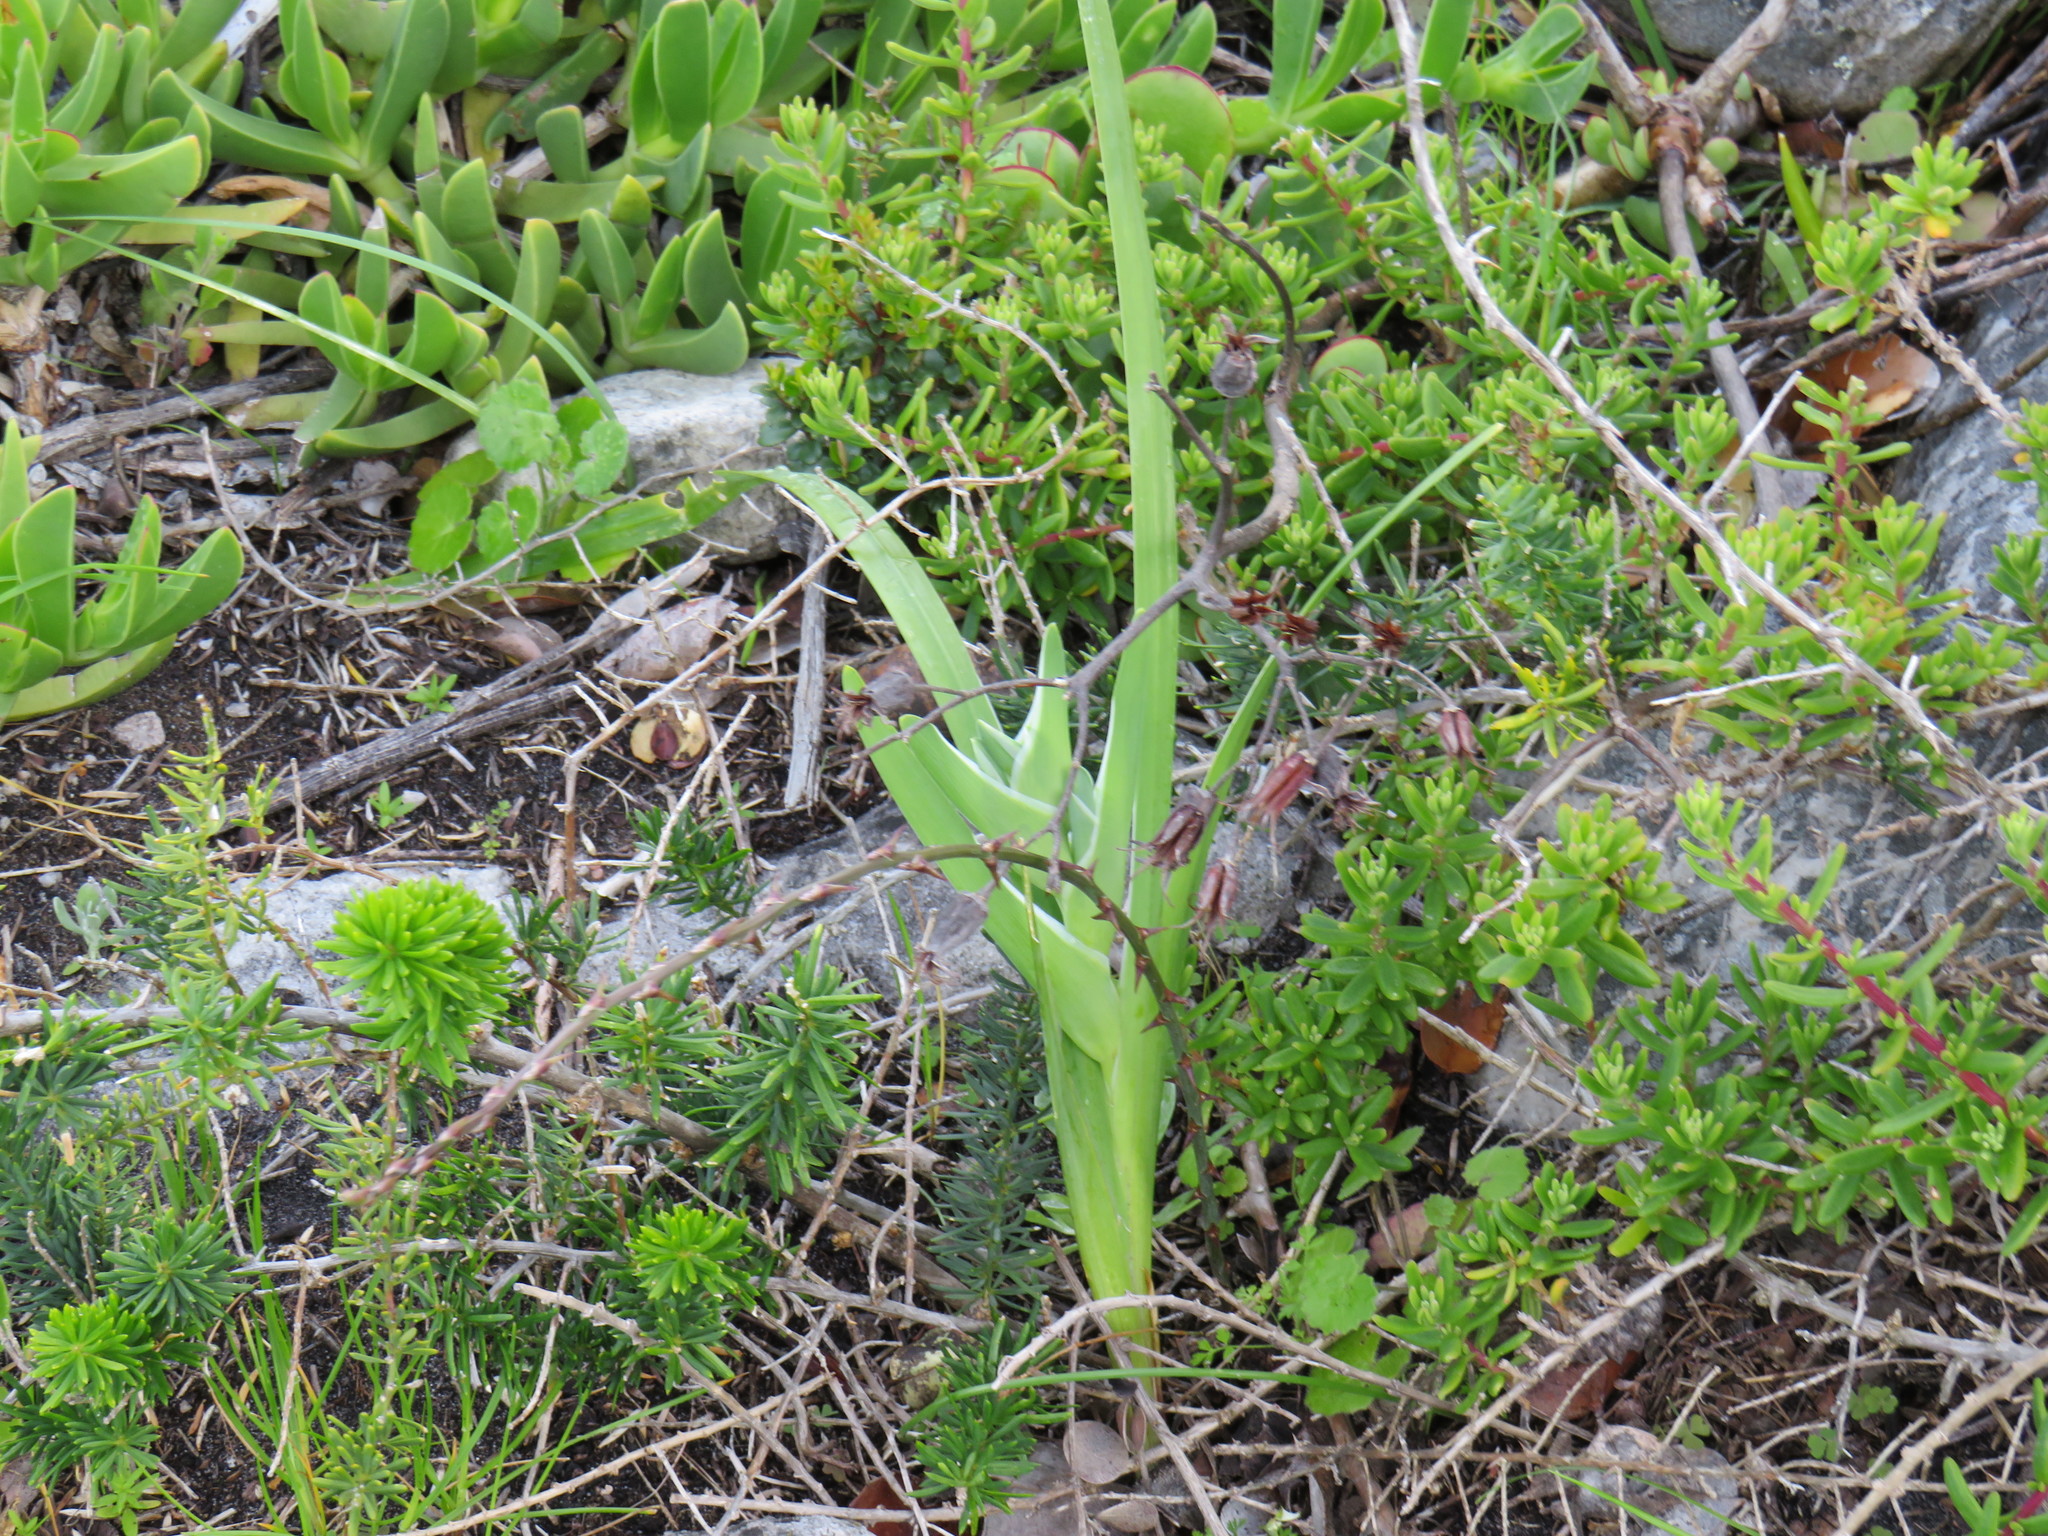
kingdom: Plantae
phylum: Tracheophyta
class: Liliopsida
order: Asparagales
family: Iridaceae
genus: Ferraria
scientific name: Ferraria crispa
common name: Black-flag
